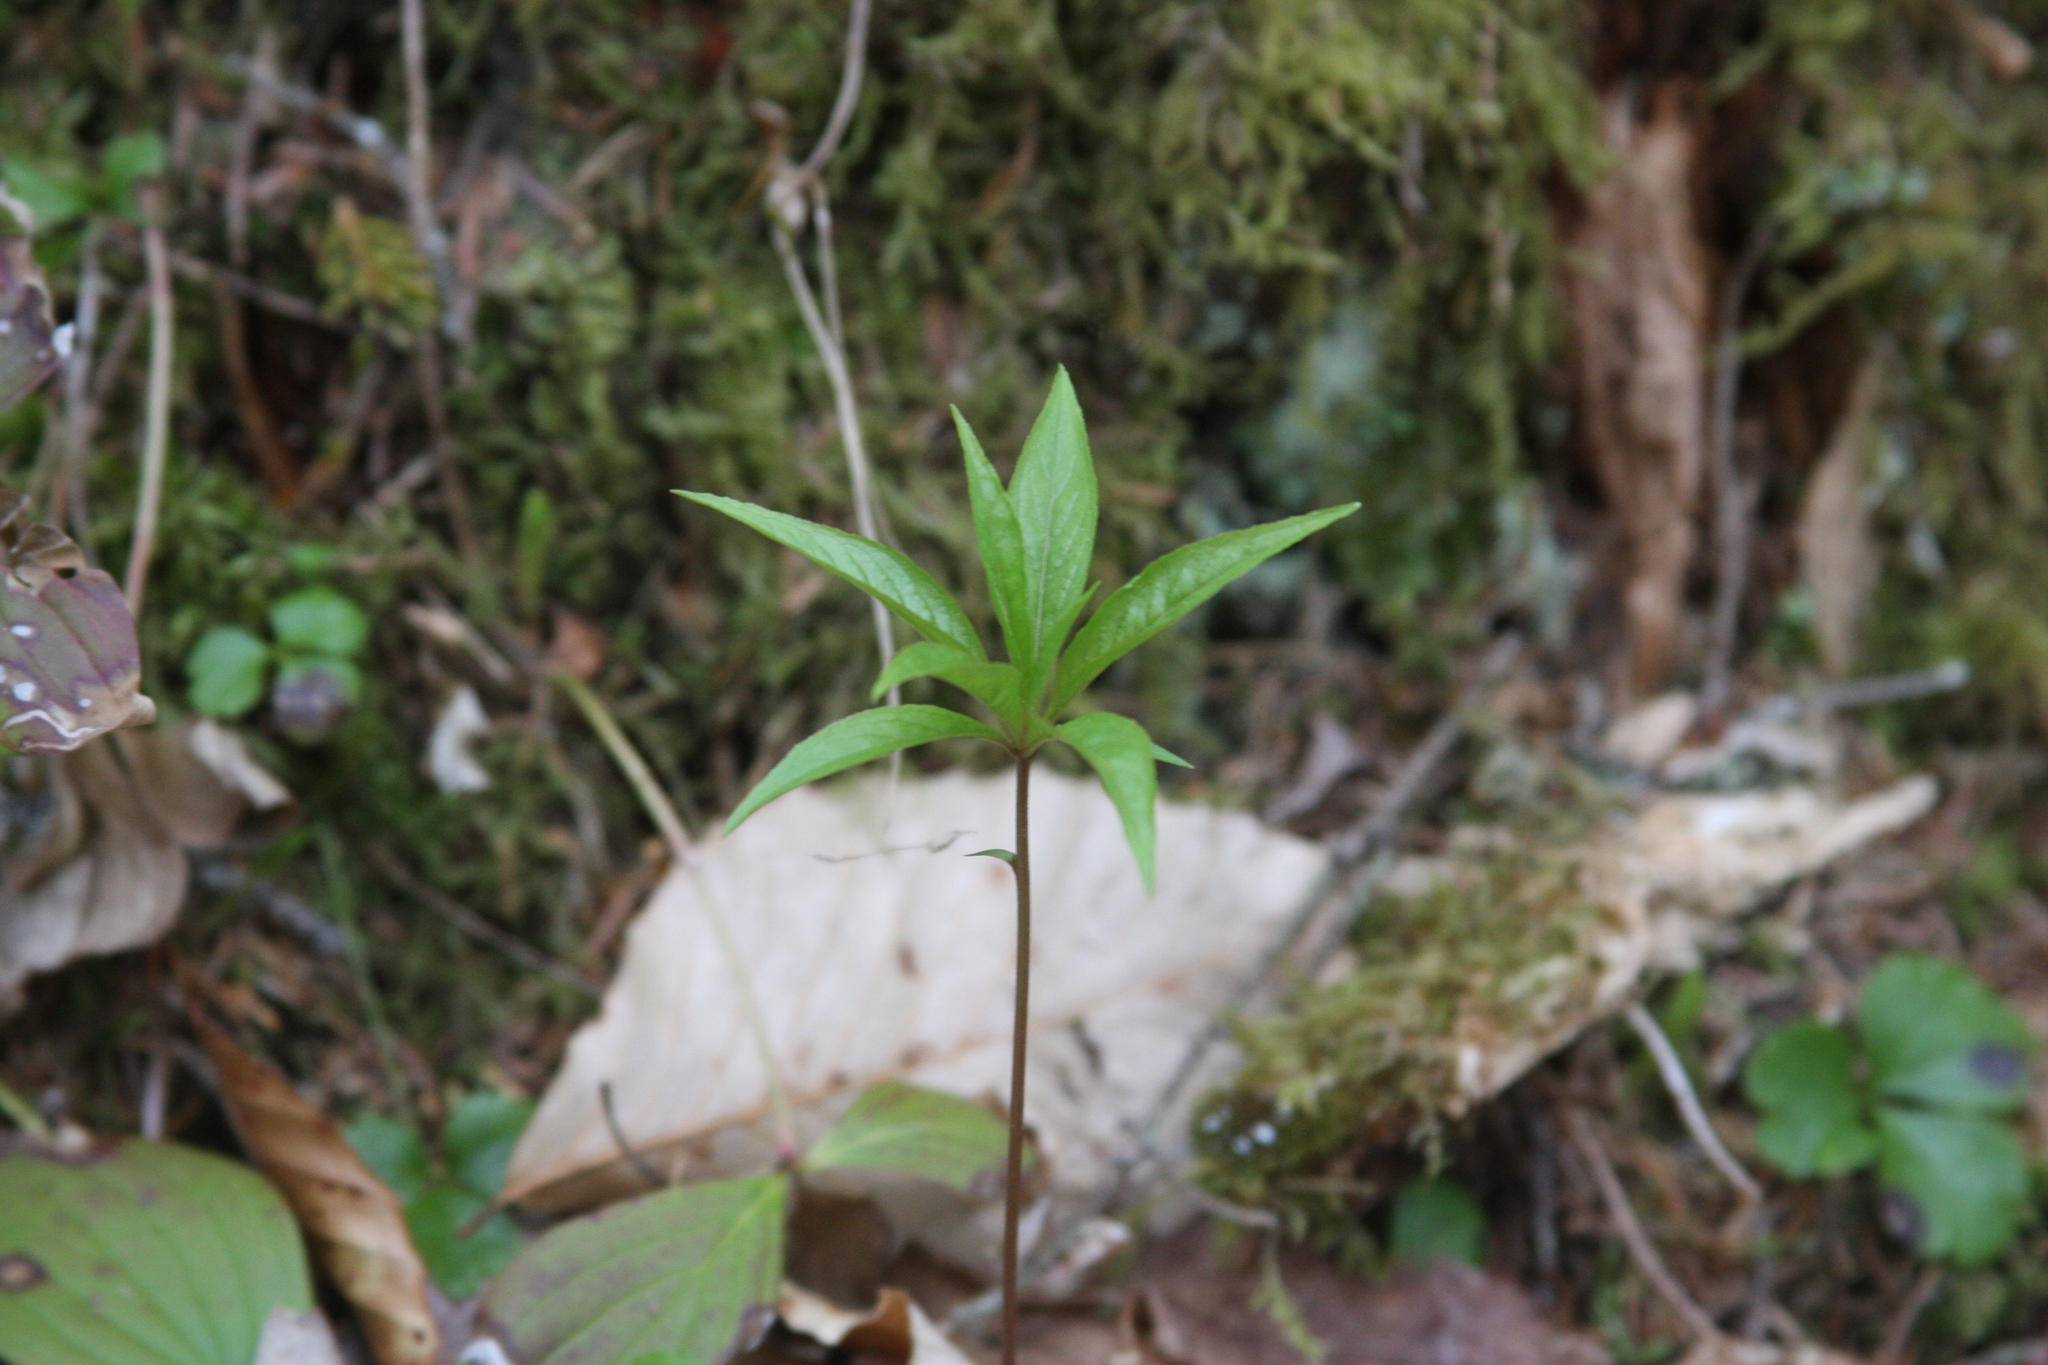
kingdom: Plantae
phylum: Tracheophyta
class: Magnoliopsida
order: Ericales
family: Primulaceae
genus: Lysimachia
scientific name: Lysimachia borealis
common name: American starflower
